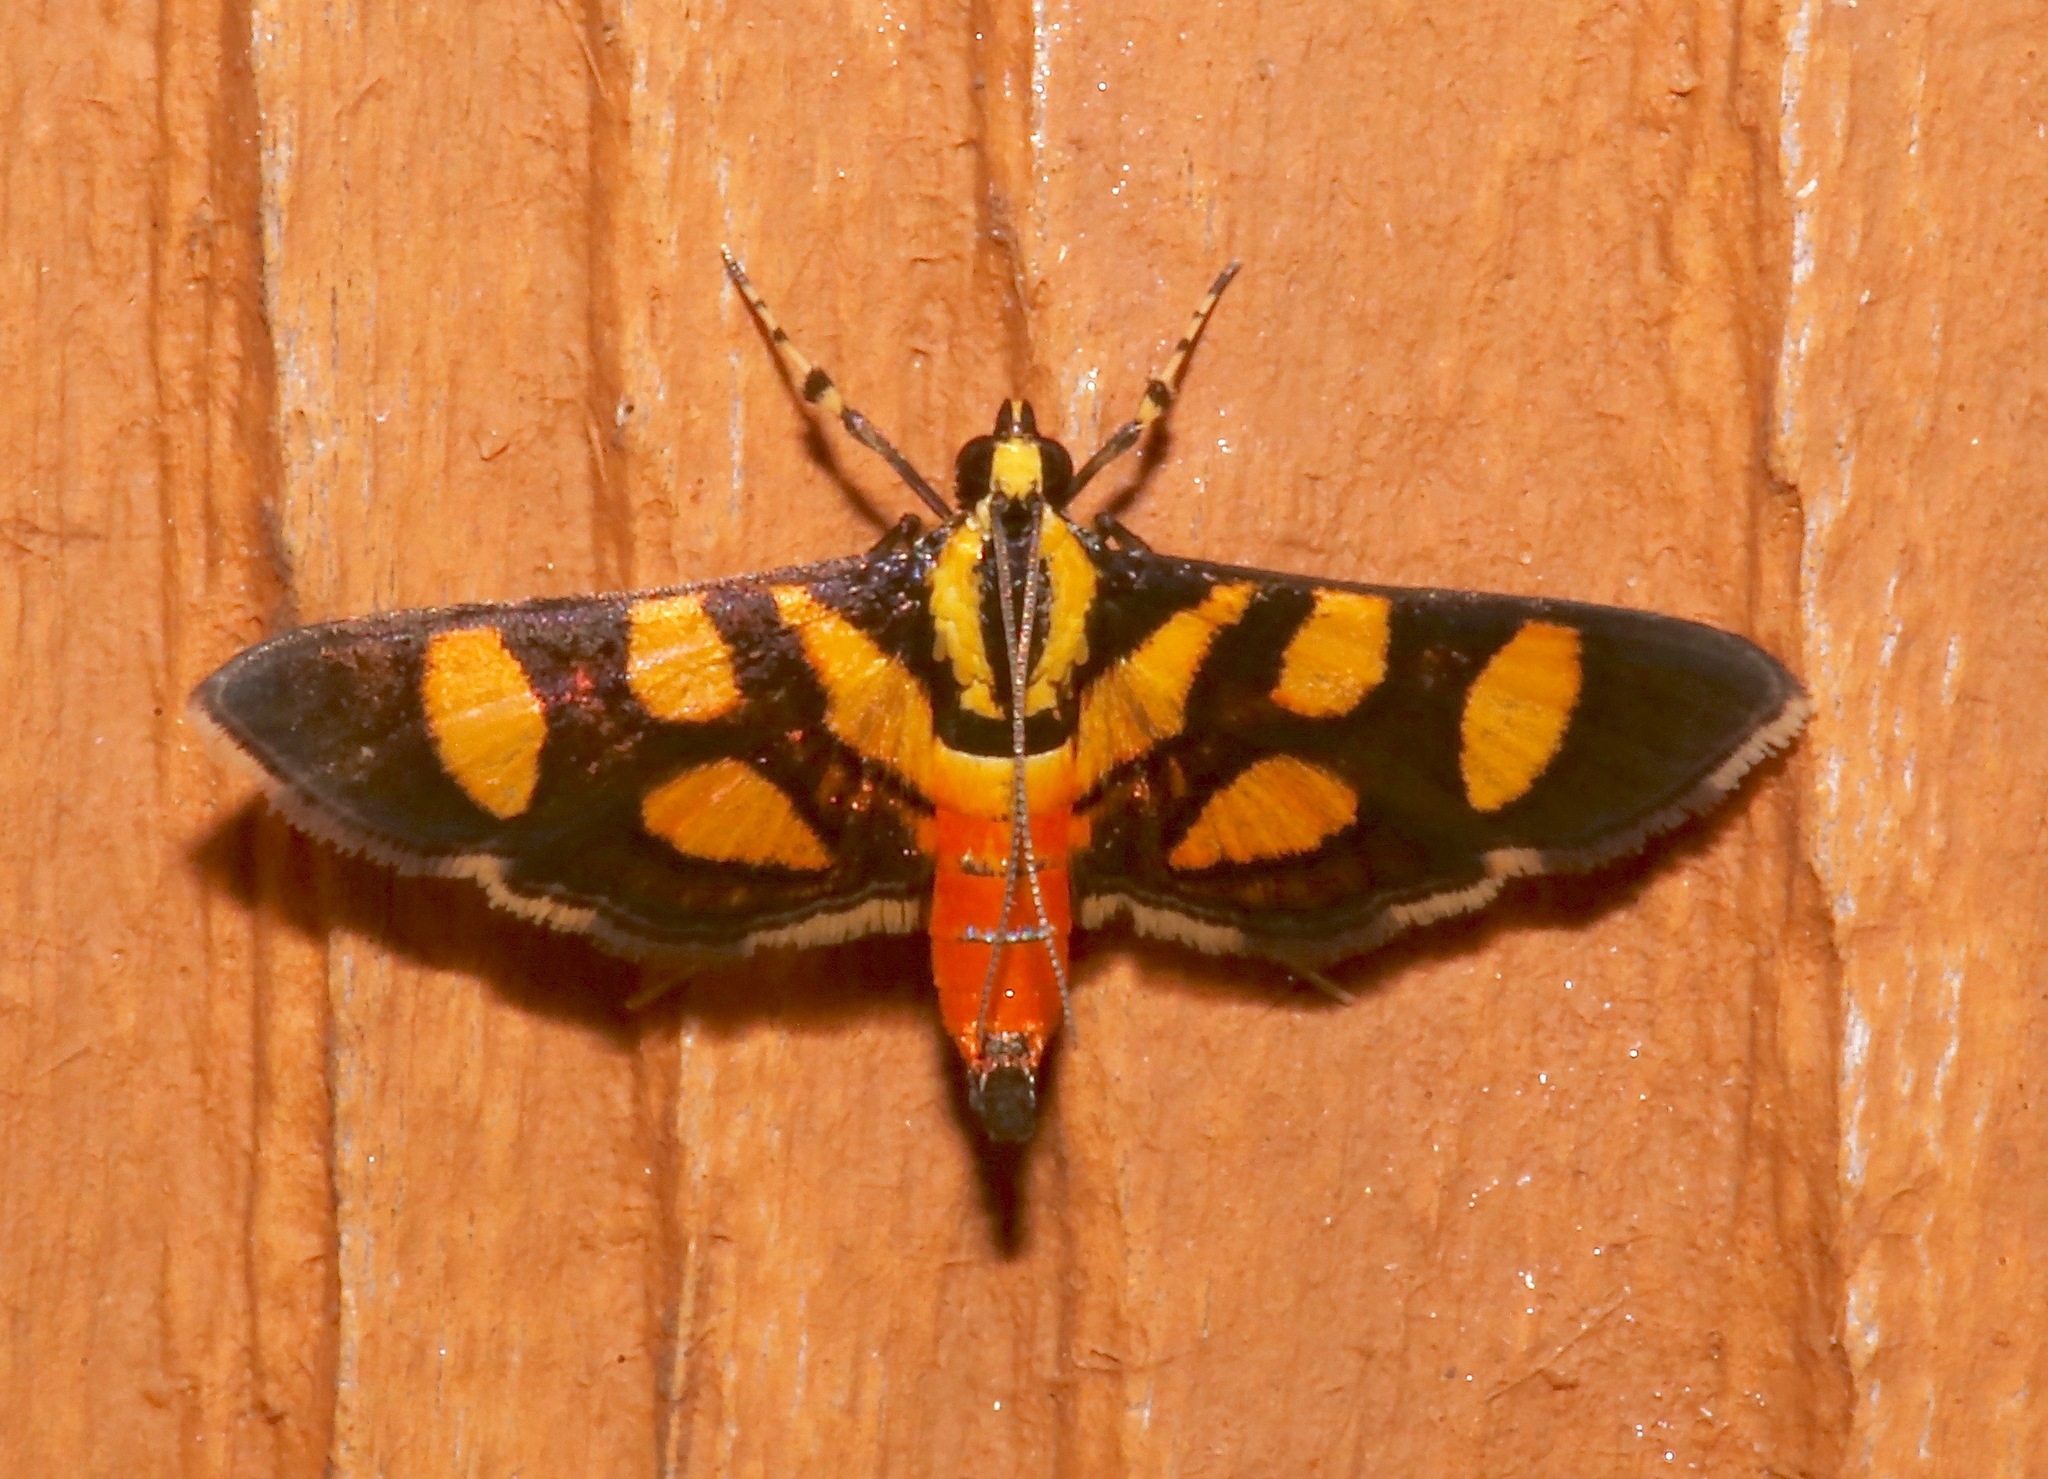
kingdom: Animalia
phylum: Arthropoda
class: Insecta
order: Lepidoptera
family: Crambidae
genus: Syngamia
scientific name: Syngamia florella
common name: Orange-spotted flower moth
